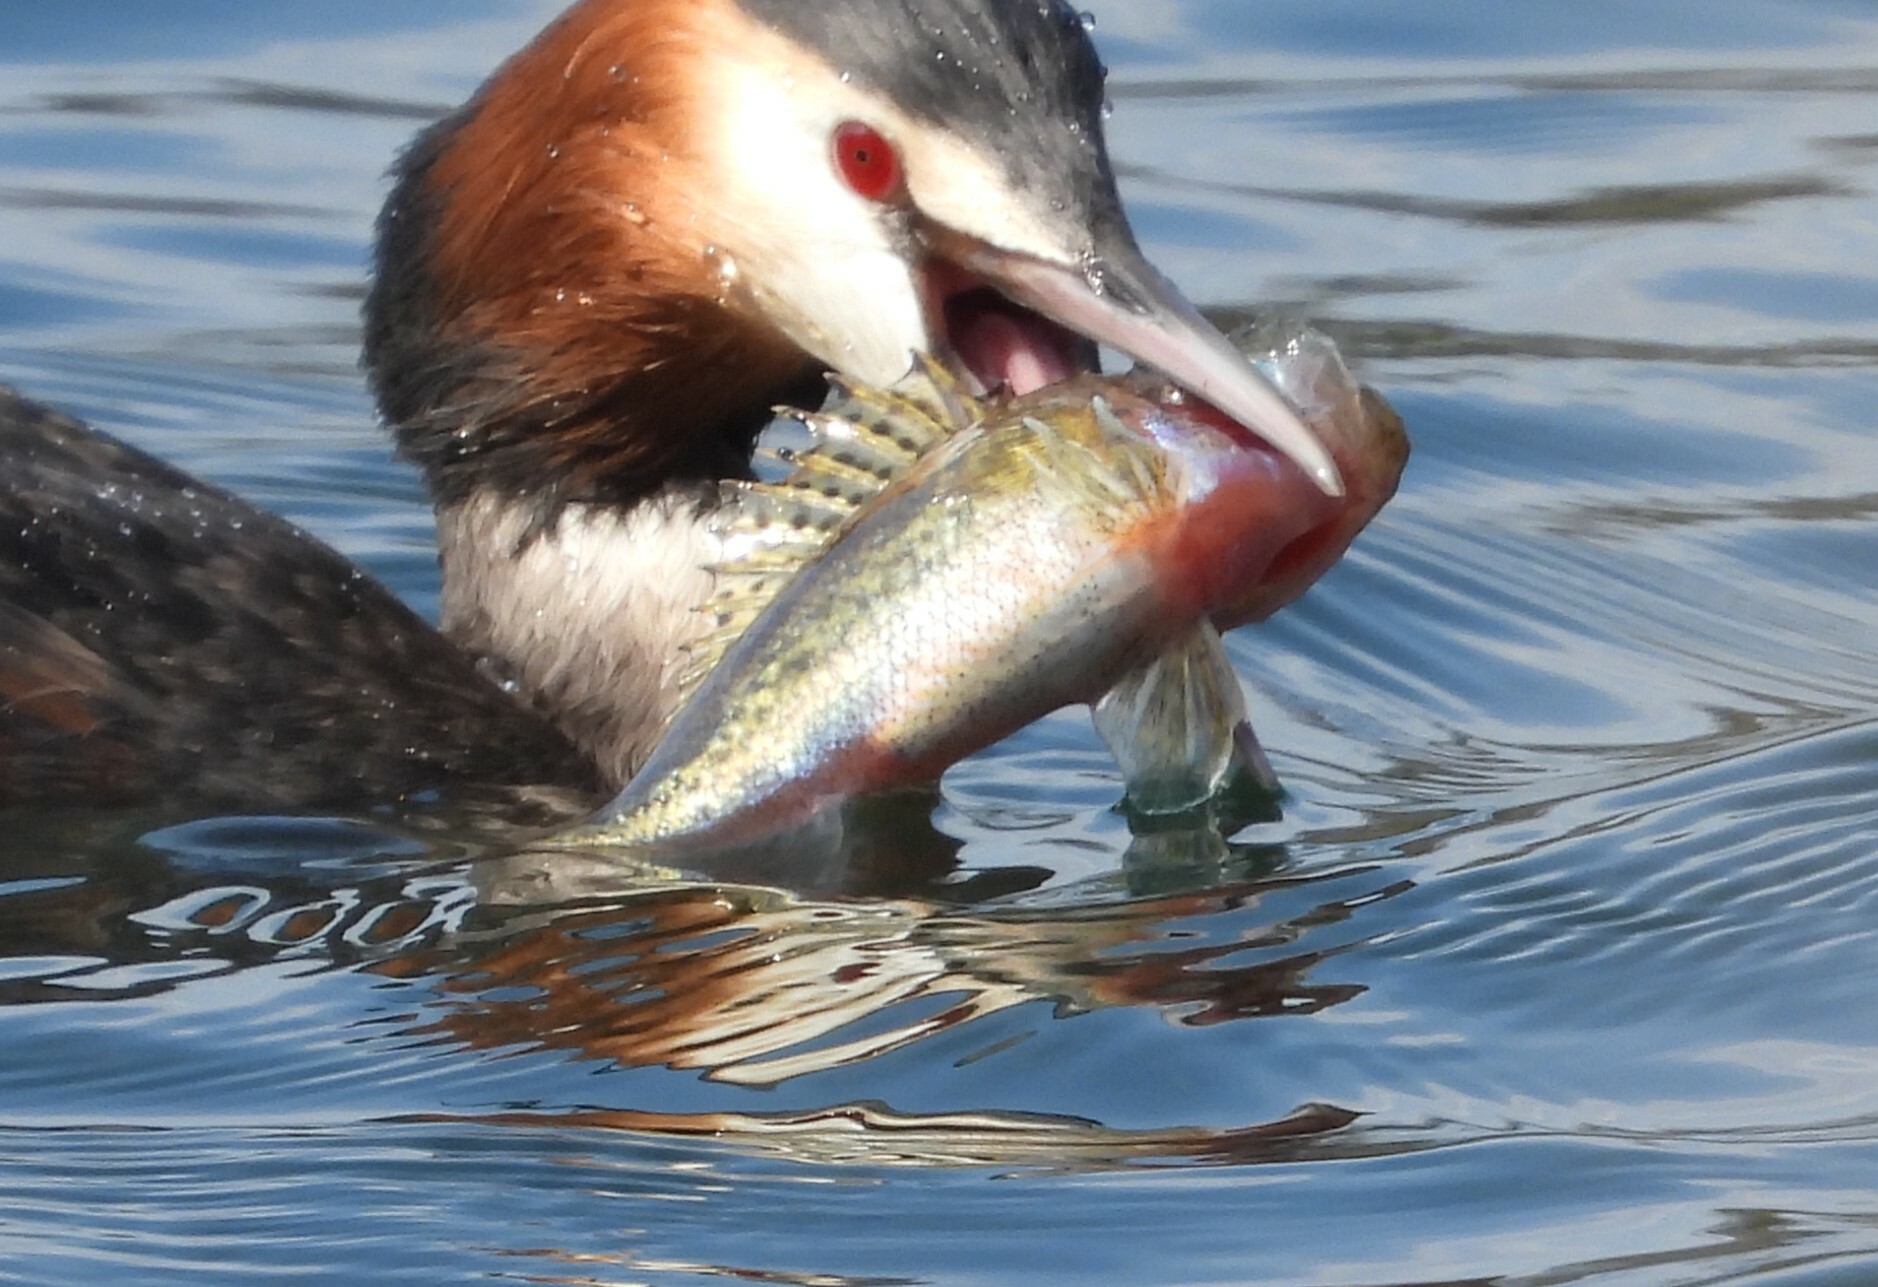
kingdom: Animalia
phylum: Chordata
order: Perciformes
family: Percidae
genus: Gymnocephalus
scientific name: Gymnocephalus cernua
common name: Ruffe
